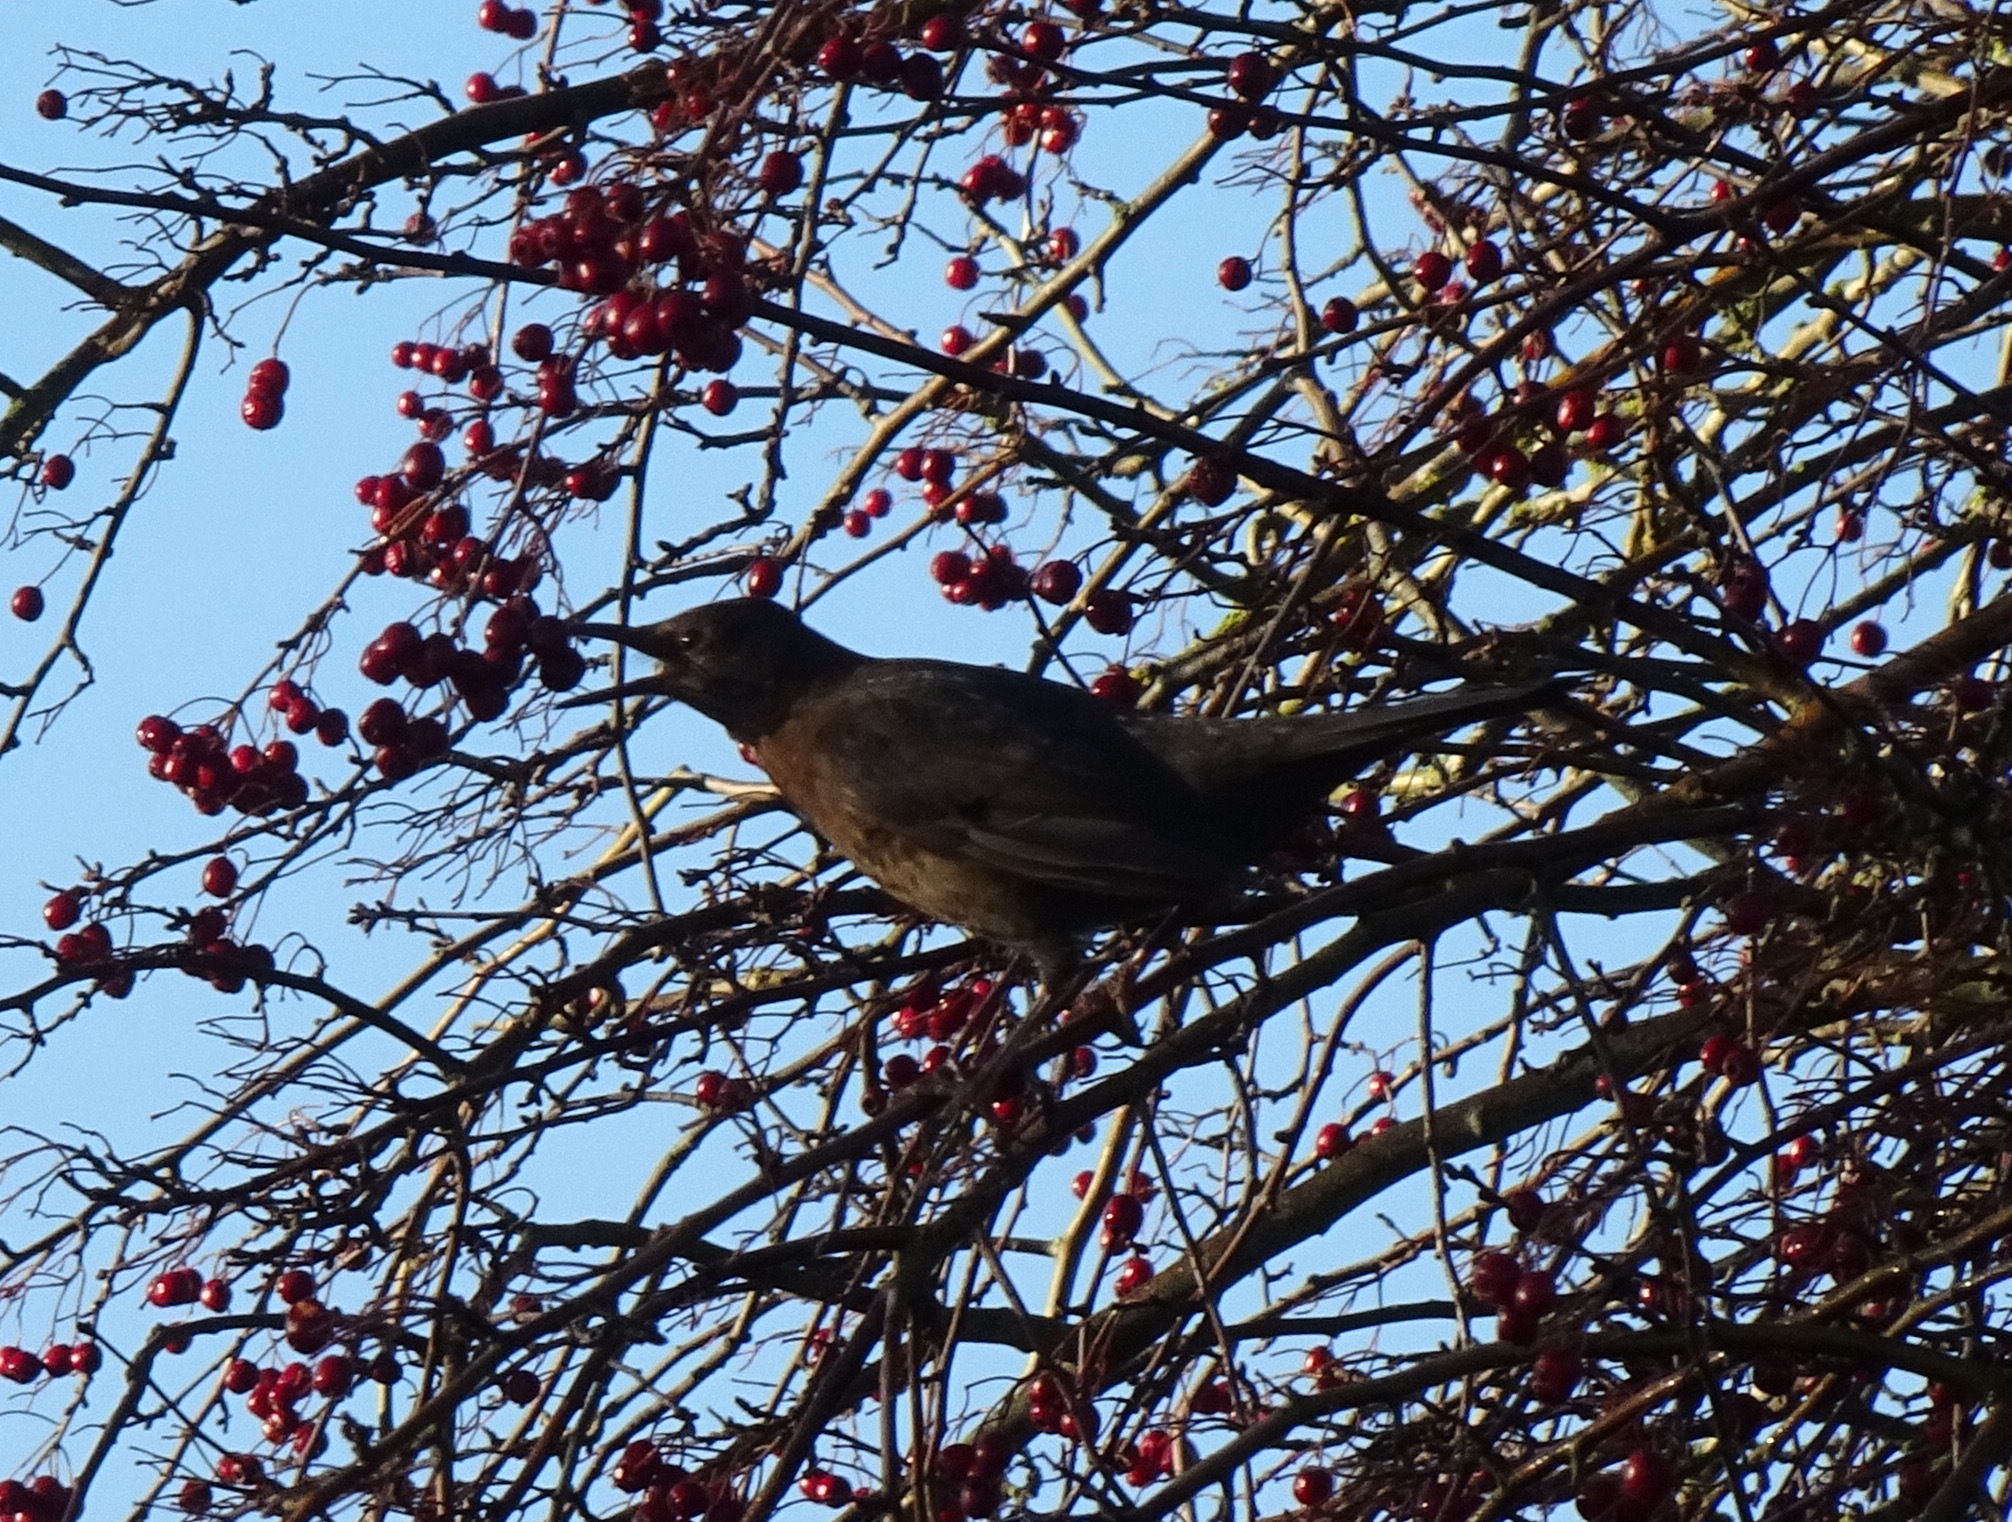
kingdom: Animalia
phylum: Chordata
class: Aves
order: Passeriformes
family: Turdidae
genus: Turdus
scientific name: Turdus merula
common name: Common blackbird
